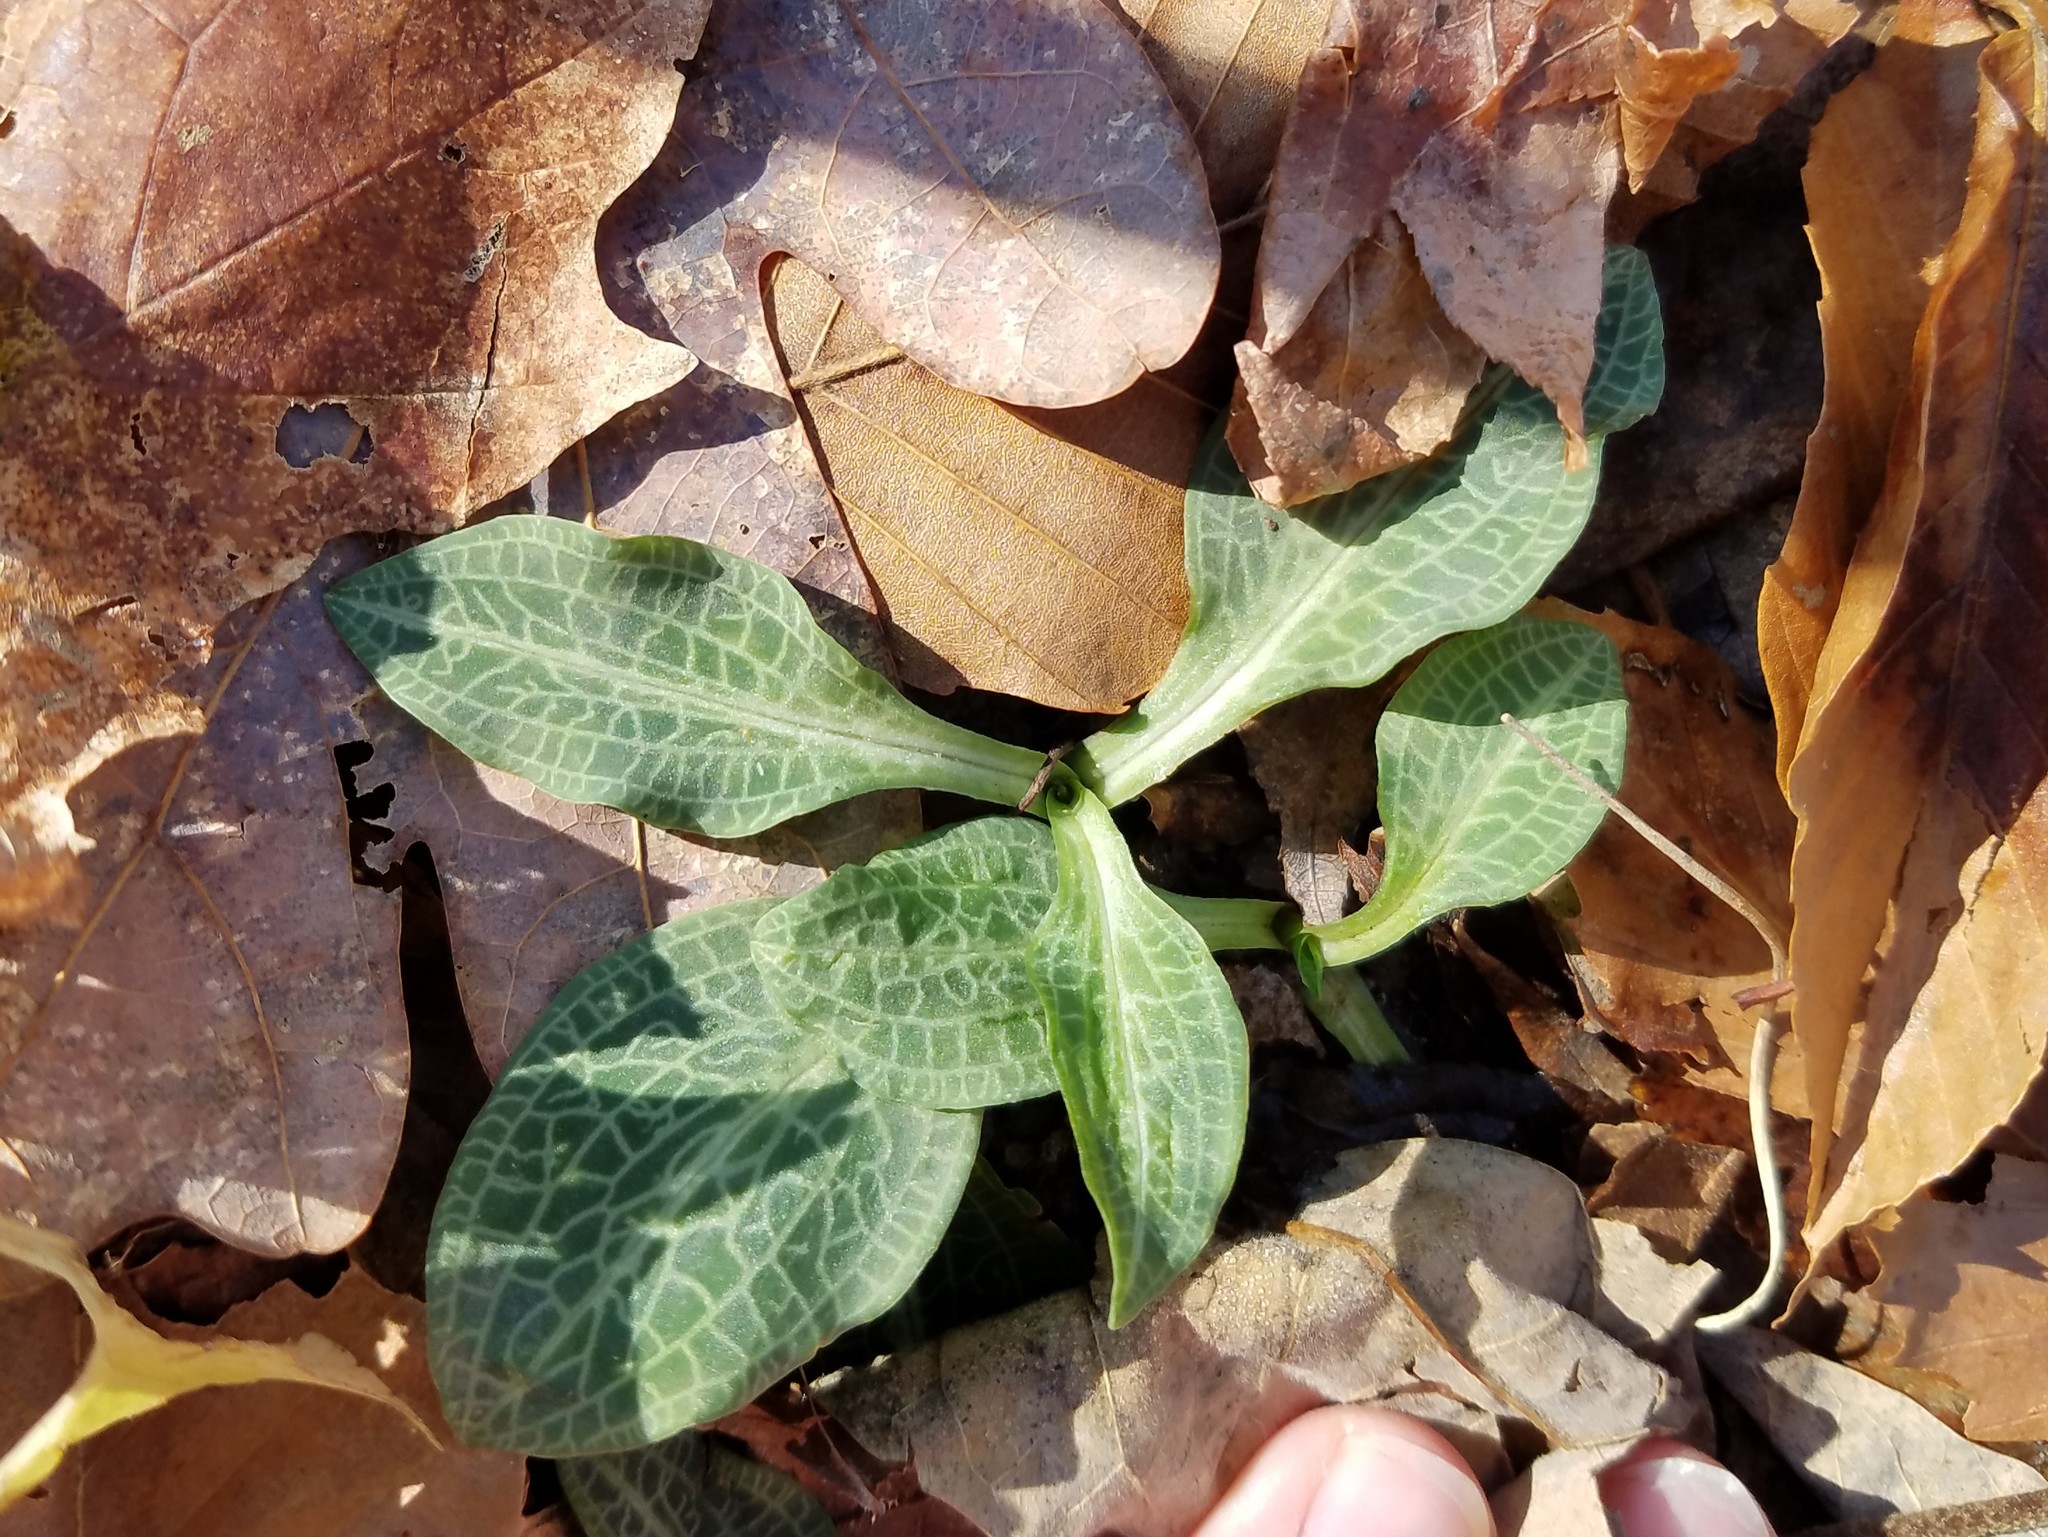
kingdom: Plantae
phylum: Tracheophyta
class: Liliopsida
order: Asparagales
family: Orchidaceae
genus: Goodyera
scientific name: Goodyera pubescens
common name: Downy rattlesnake-plantain
